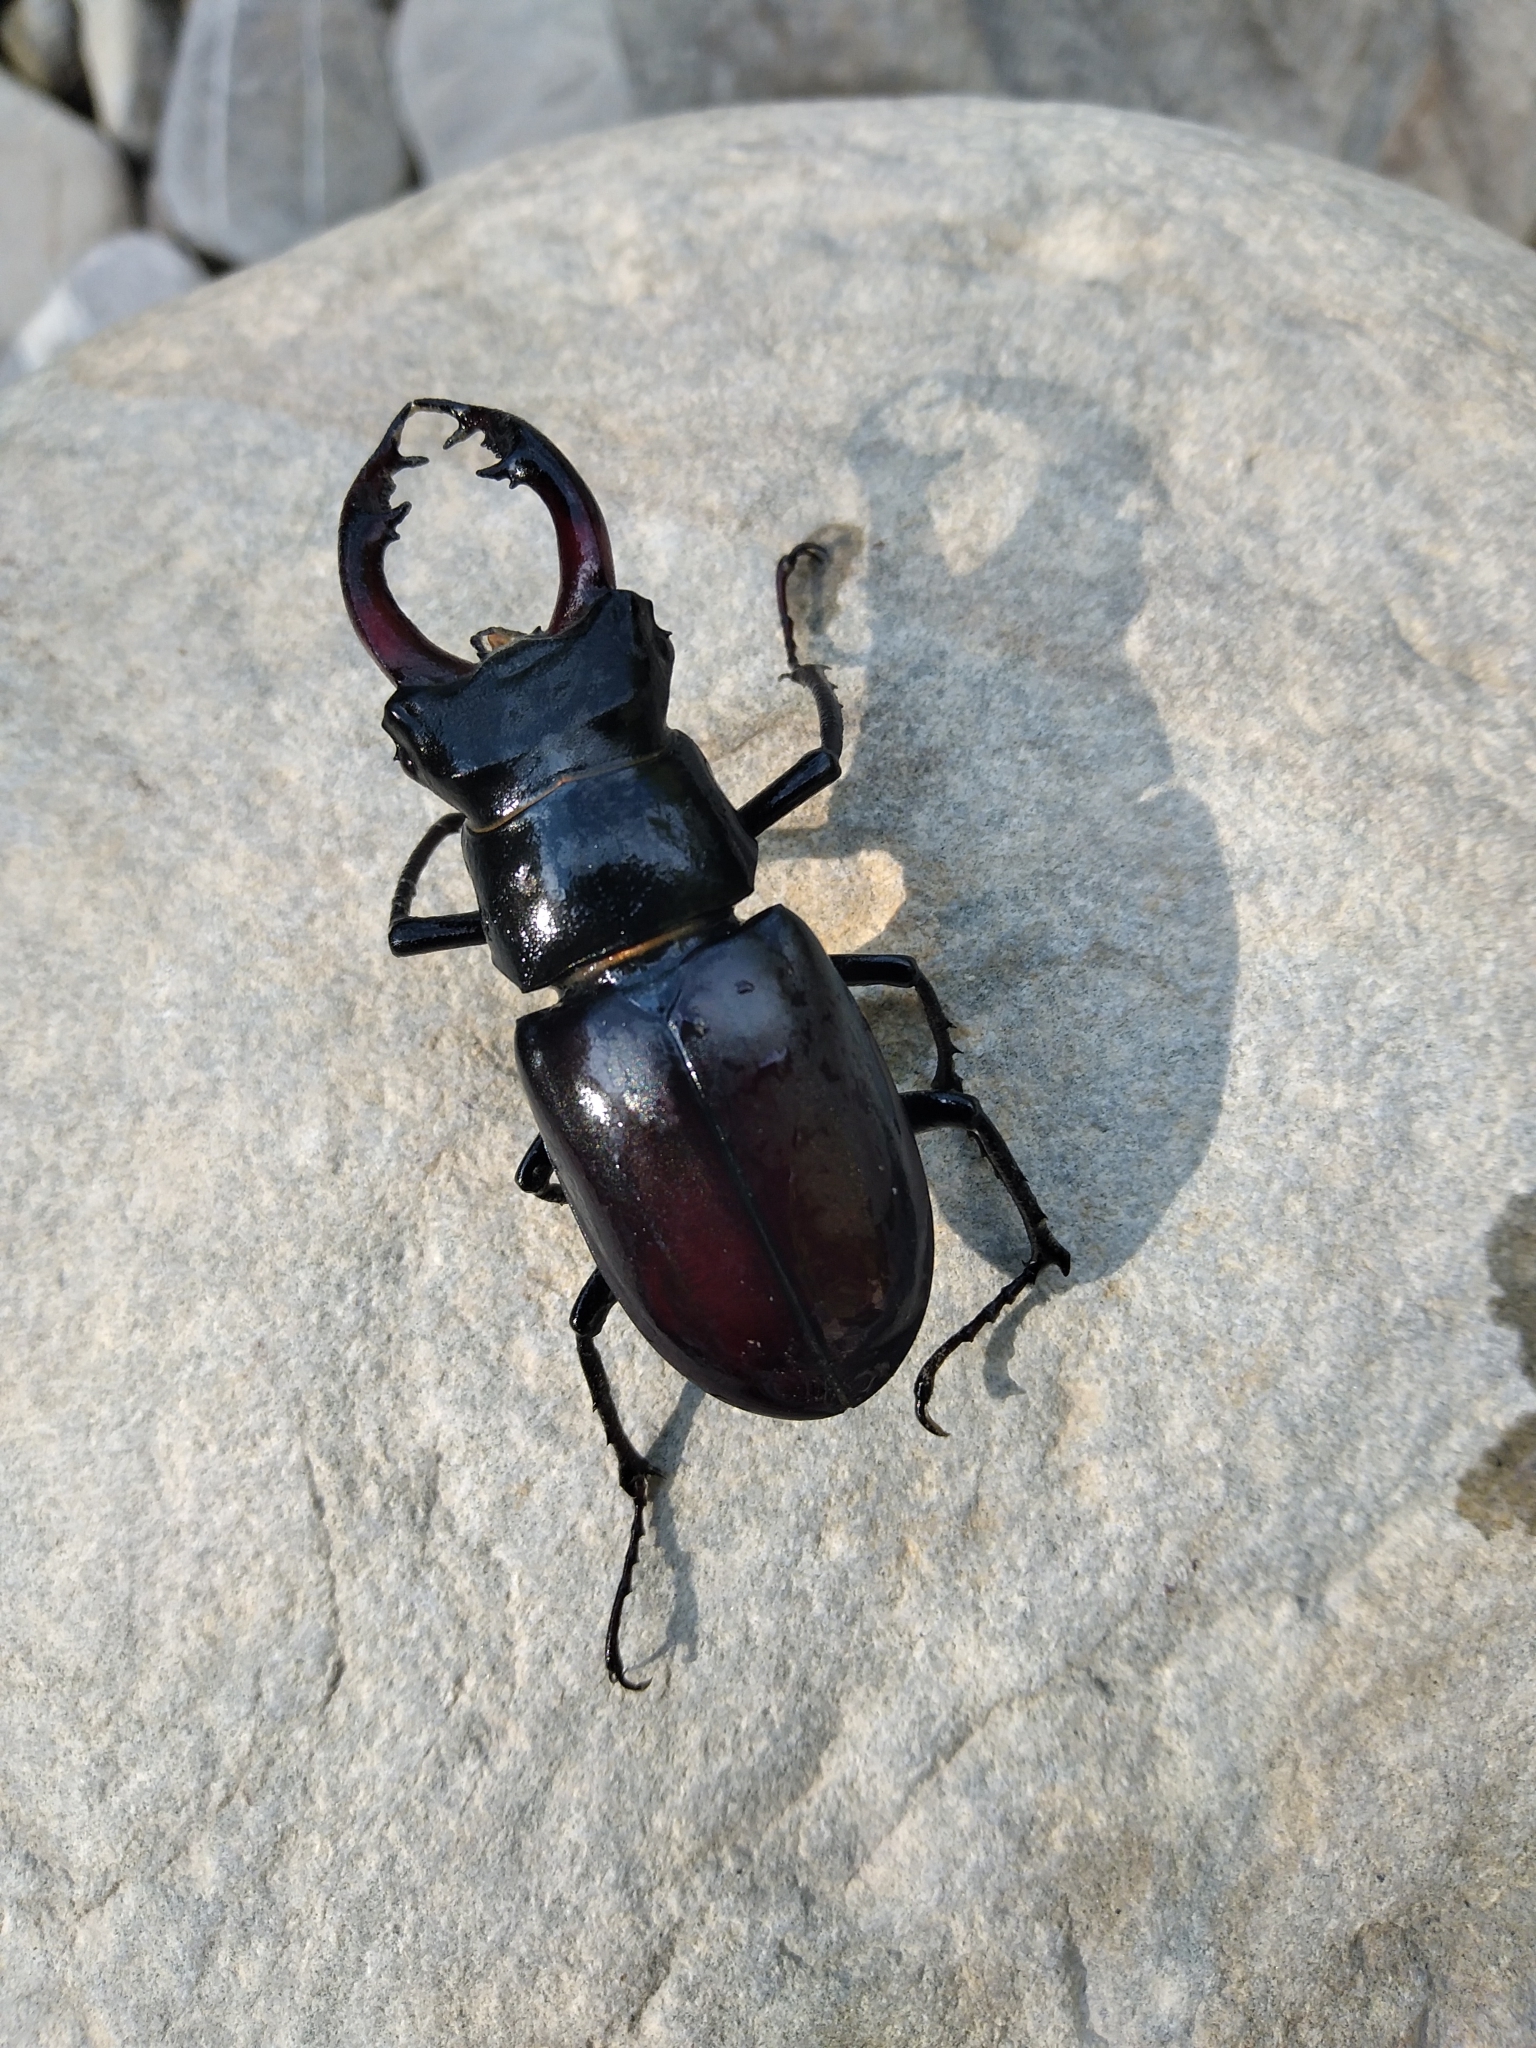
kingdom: Animalia
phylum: Arthropoda
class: Insecta
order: Coleoptera
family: Lucanidae
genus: Lucanus
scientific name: Lucanus cervus
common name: Stag beetle
